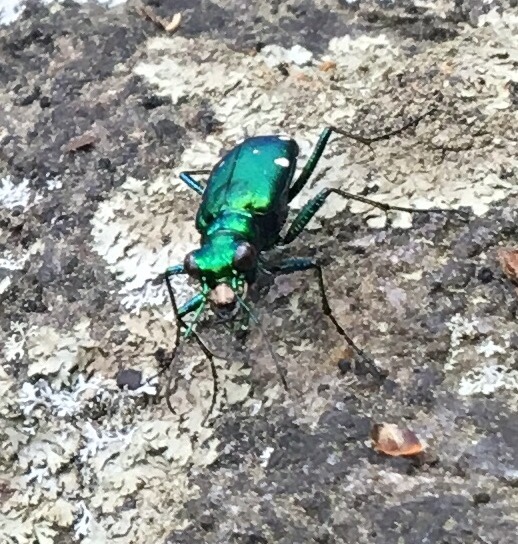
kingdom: Animalia
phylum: Arthropoda
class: Insecta
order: Coleoptera
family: Carabidae
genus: Cicindela
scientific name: Cicindela sexguttata
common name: Six-spotted tiger beetle
